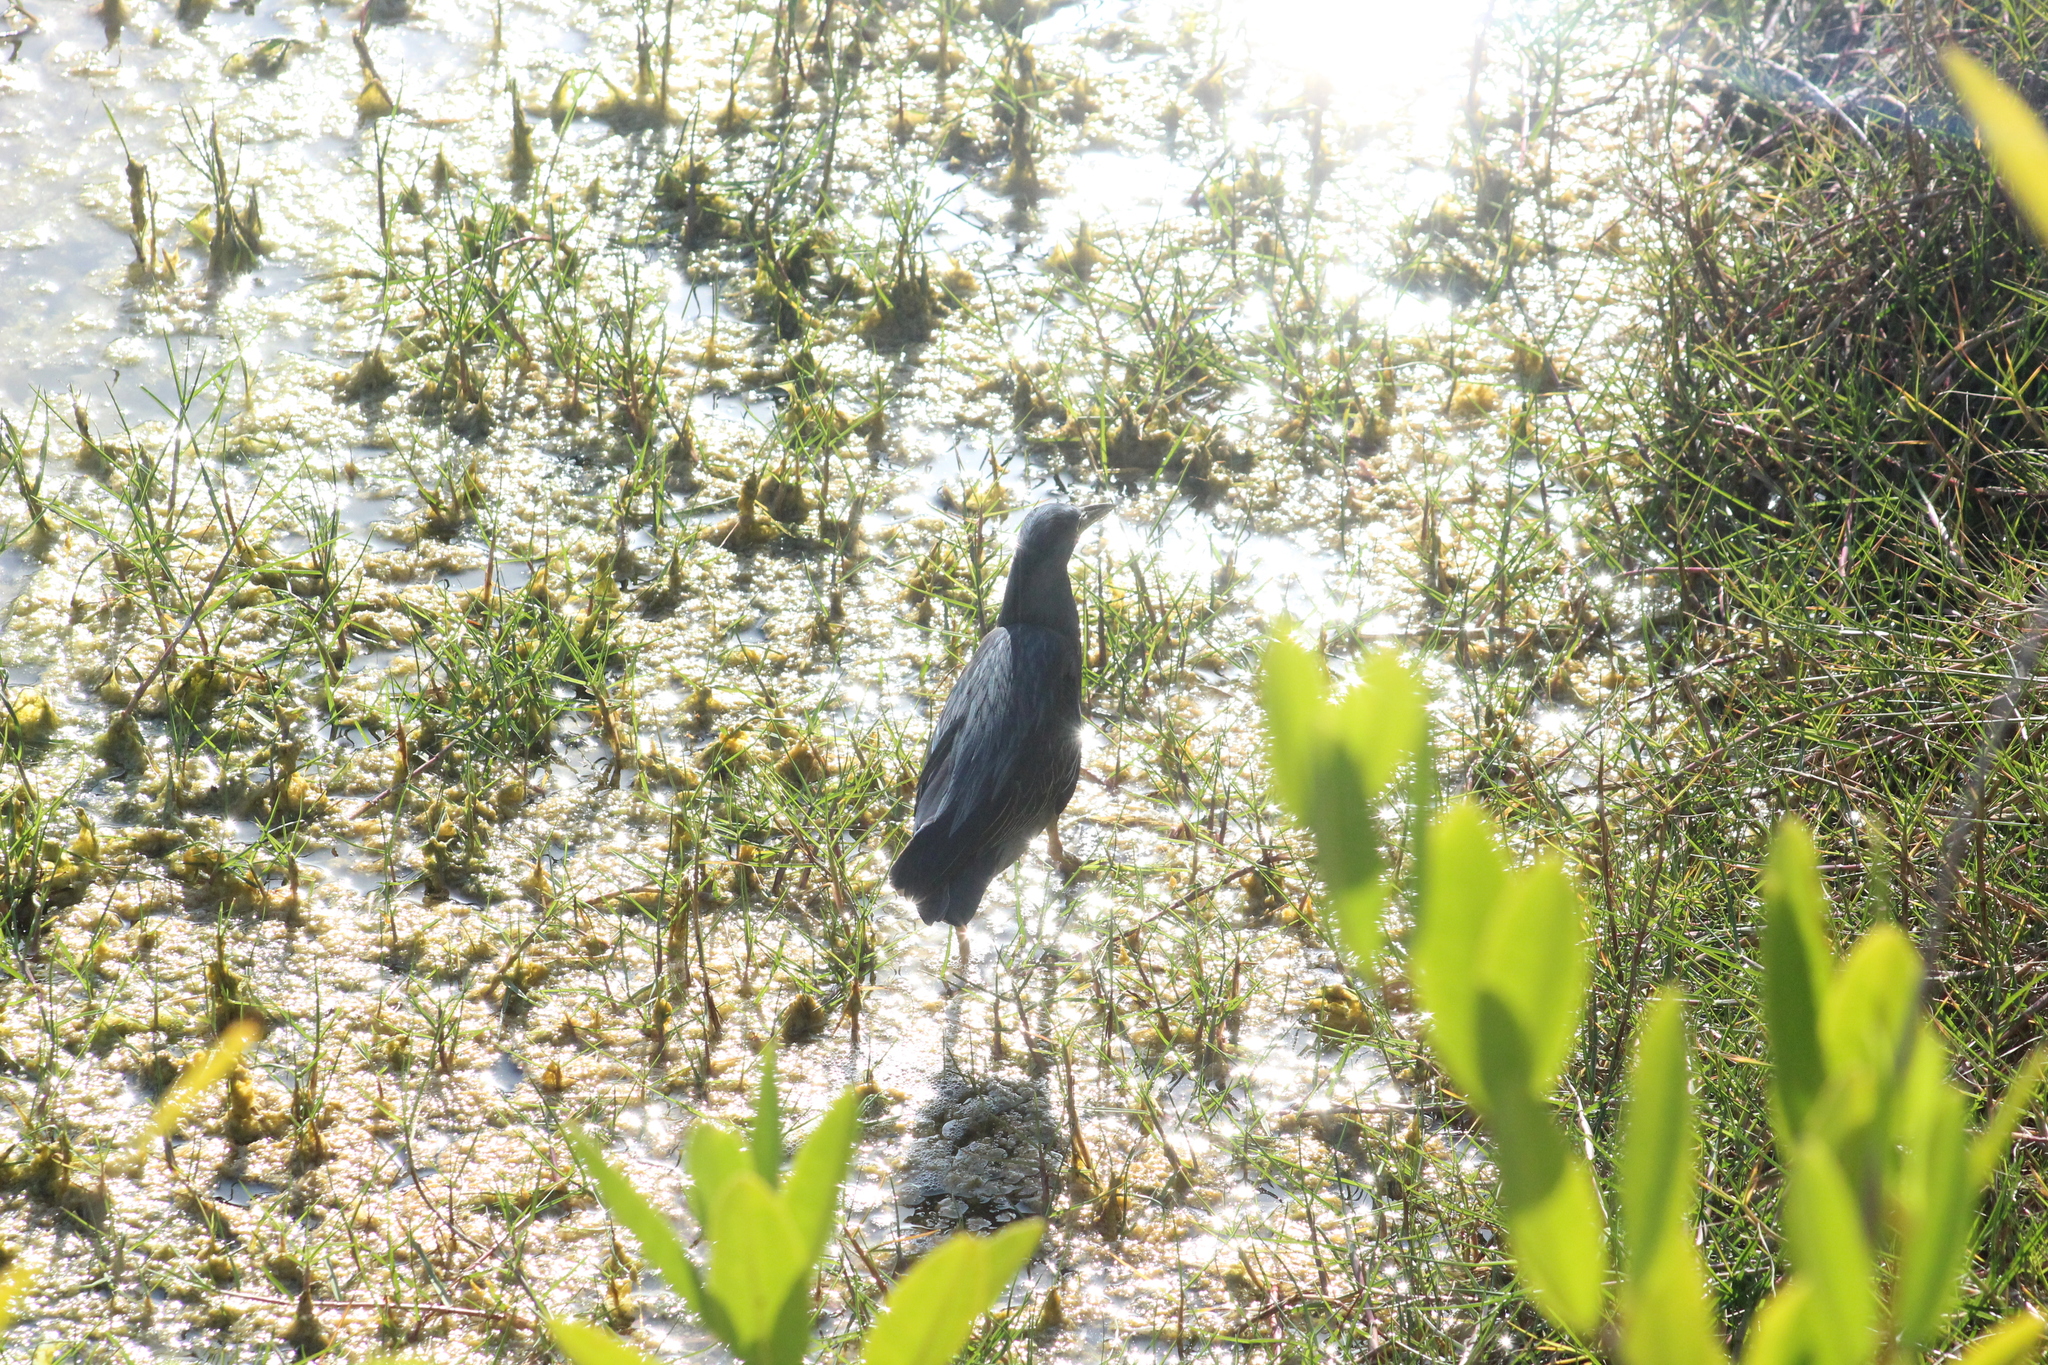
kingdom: Animalia
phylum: Chordata
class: Aves
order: Pelecaniformes
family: Ardeidae
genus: Butorides
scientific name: Butorides striata
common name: Striated heron
